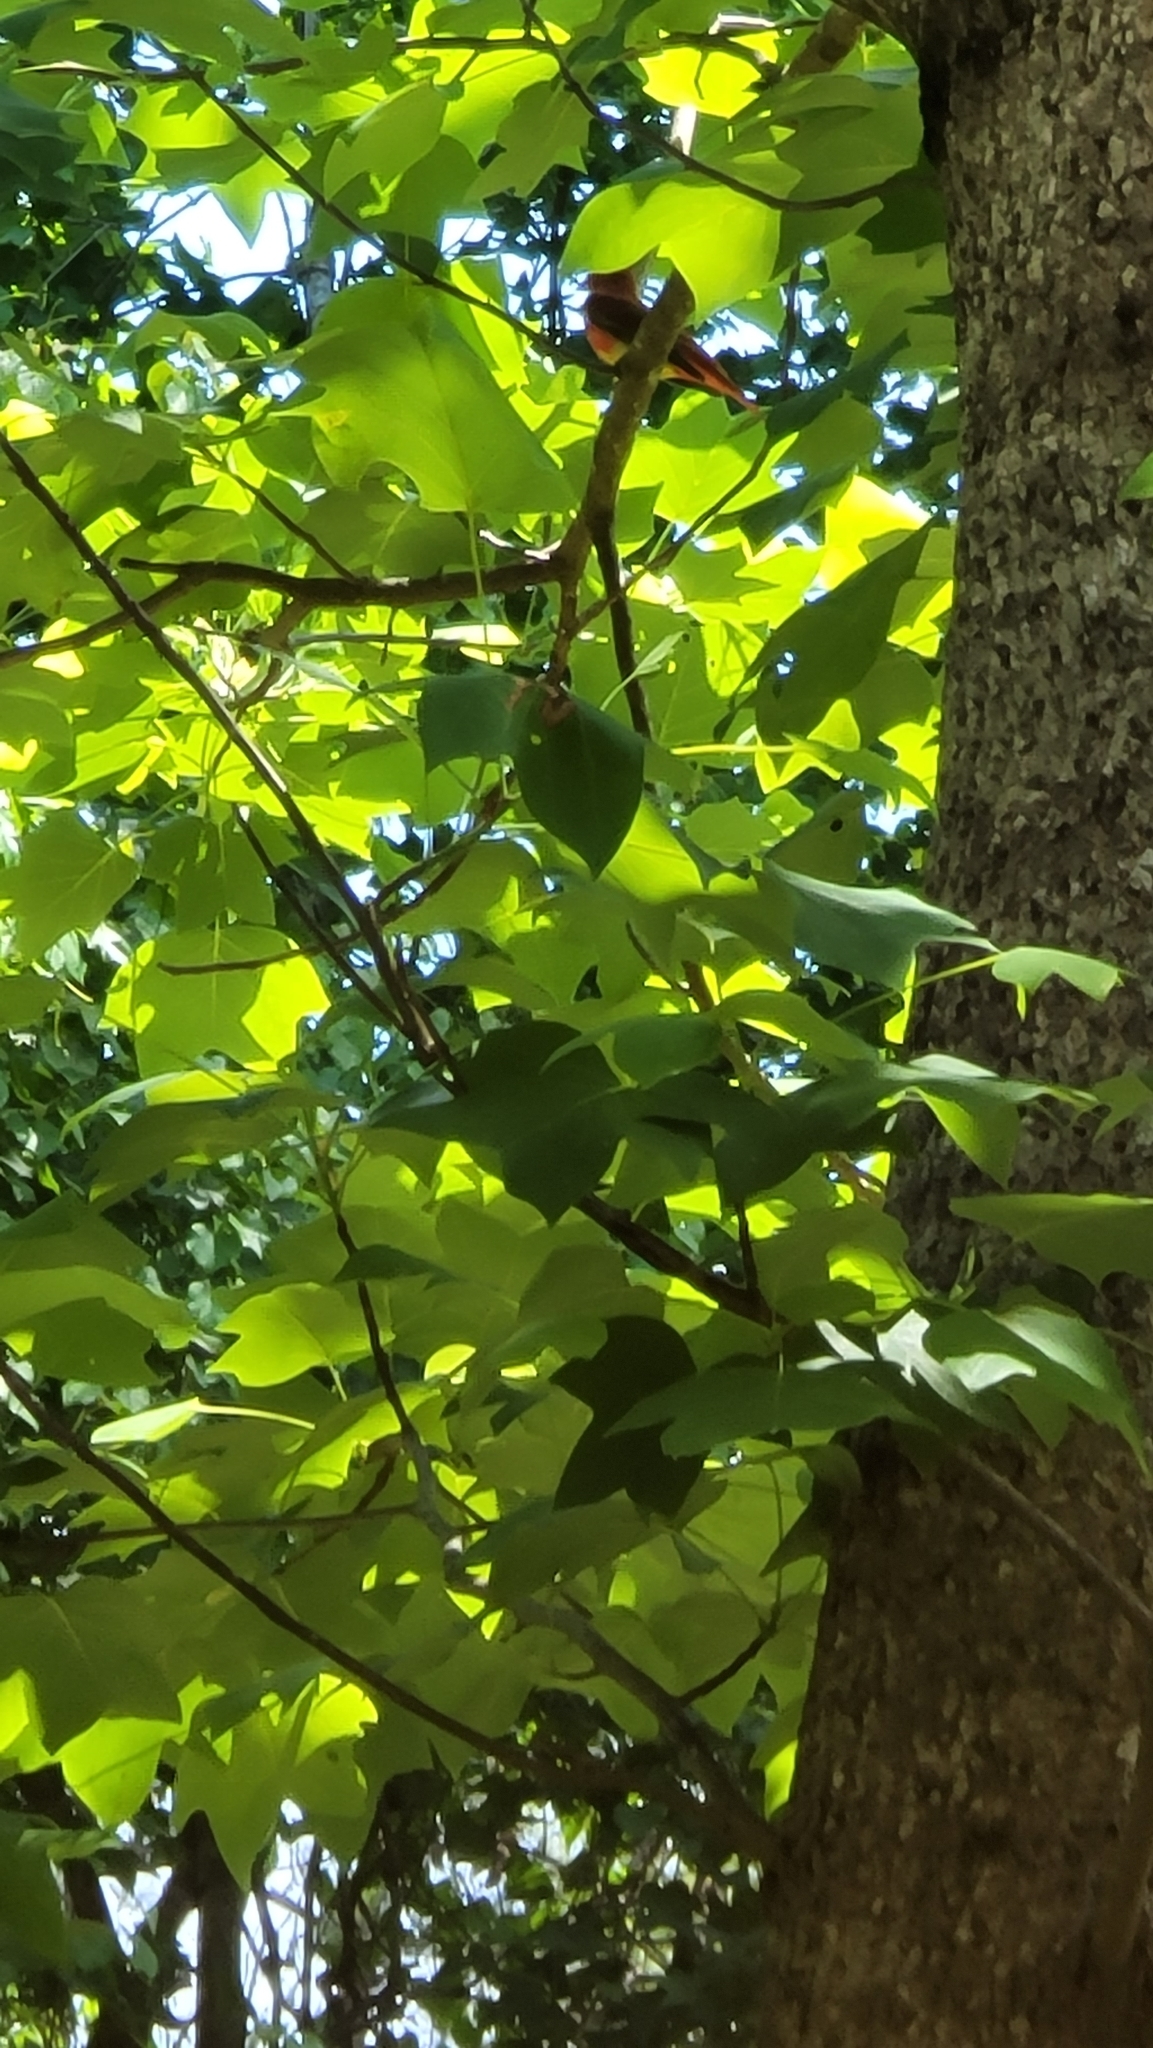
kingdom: Animalia
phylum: Chordata
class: Aves
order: Passeriformes
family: Cardinalidae
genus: Piranga
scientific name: Piranga rubra
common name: Summer tanager
